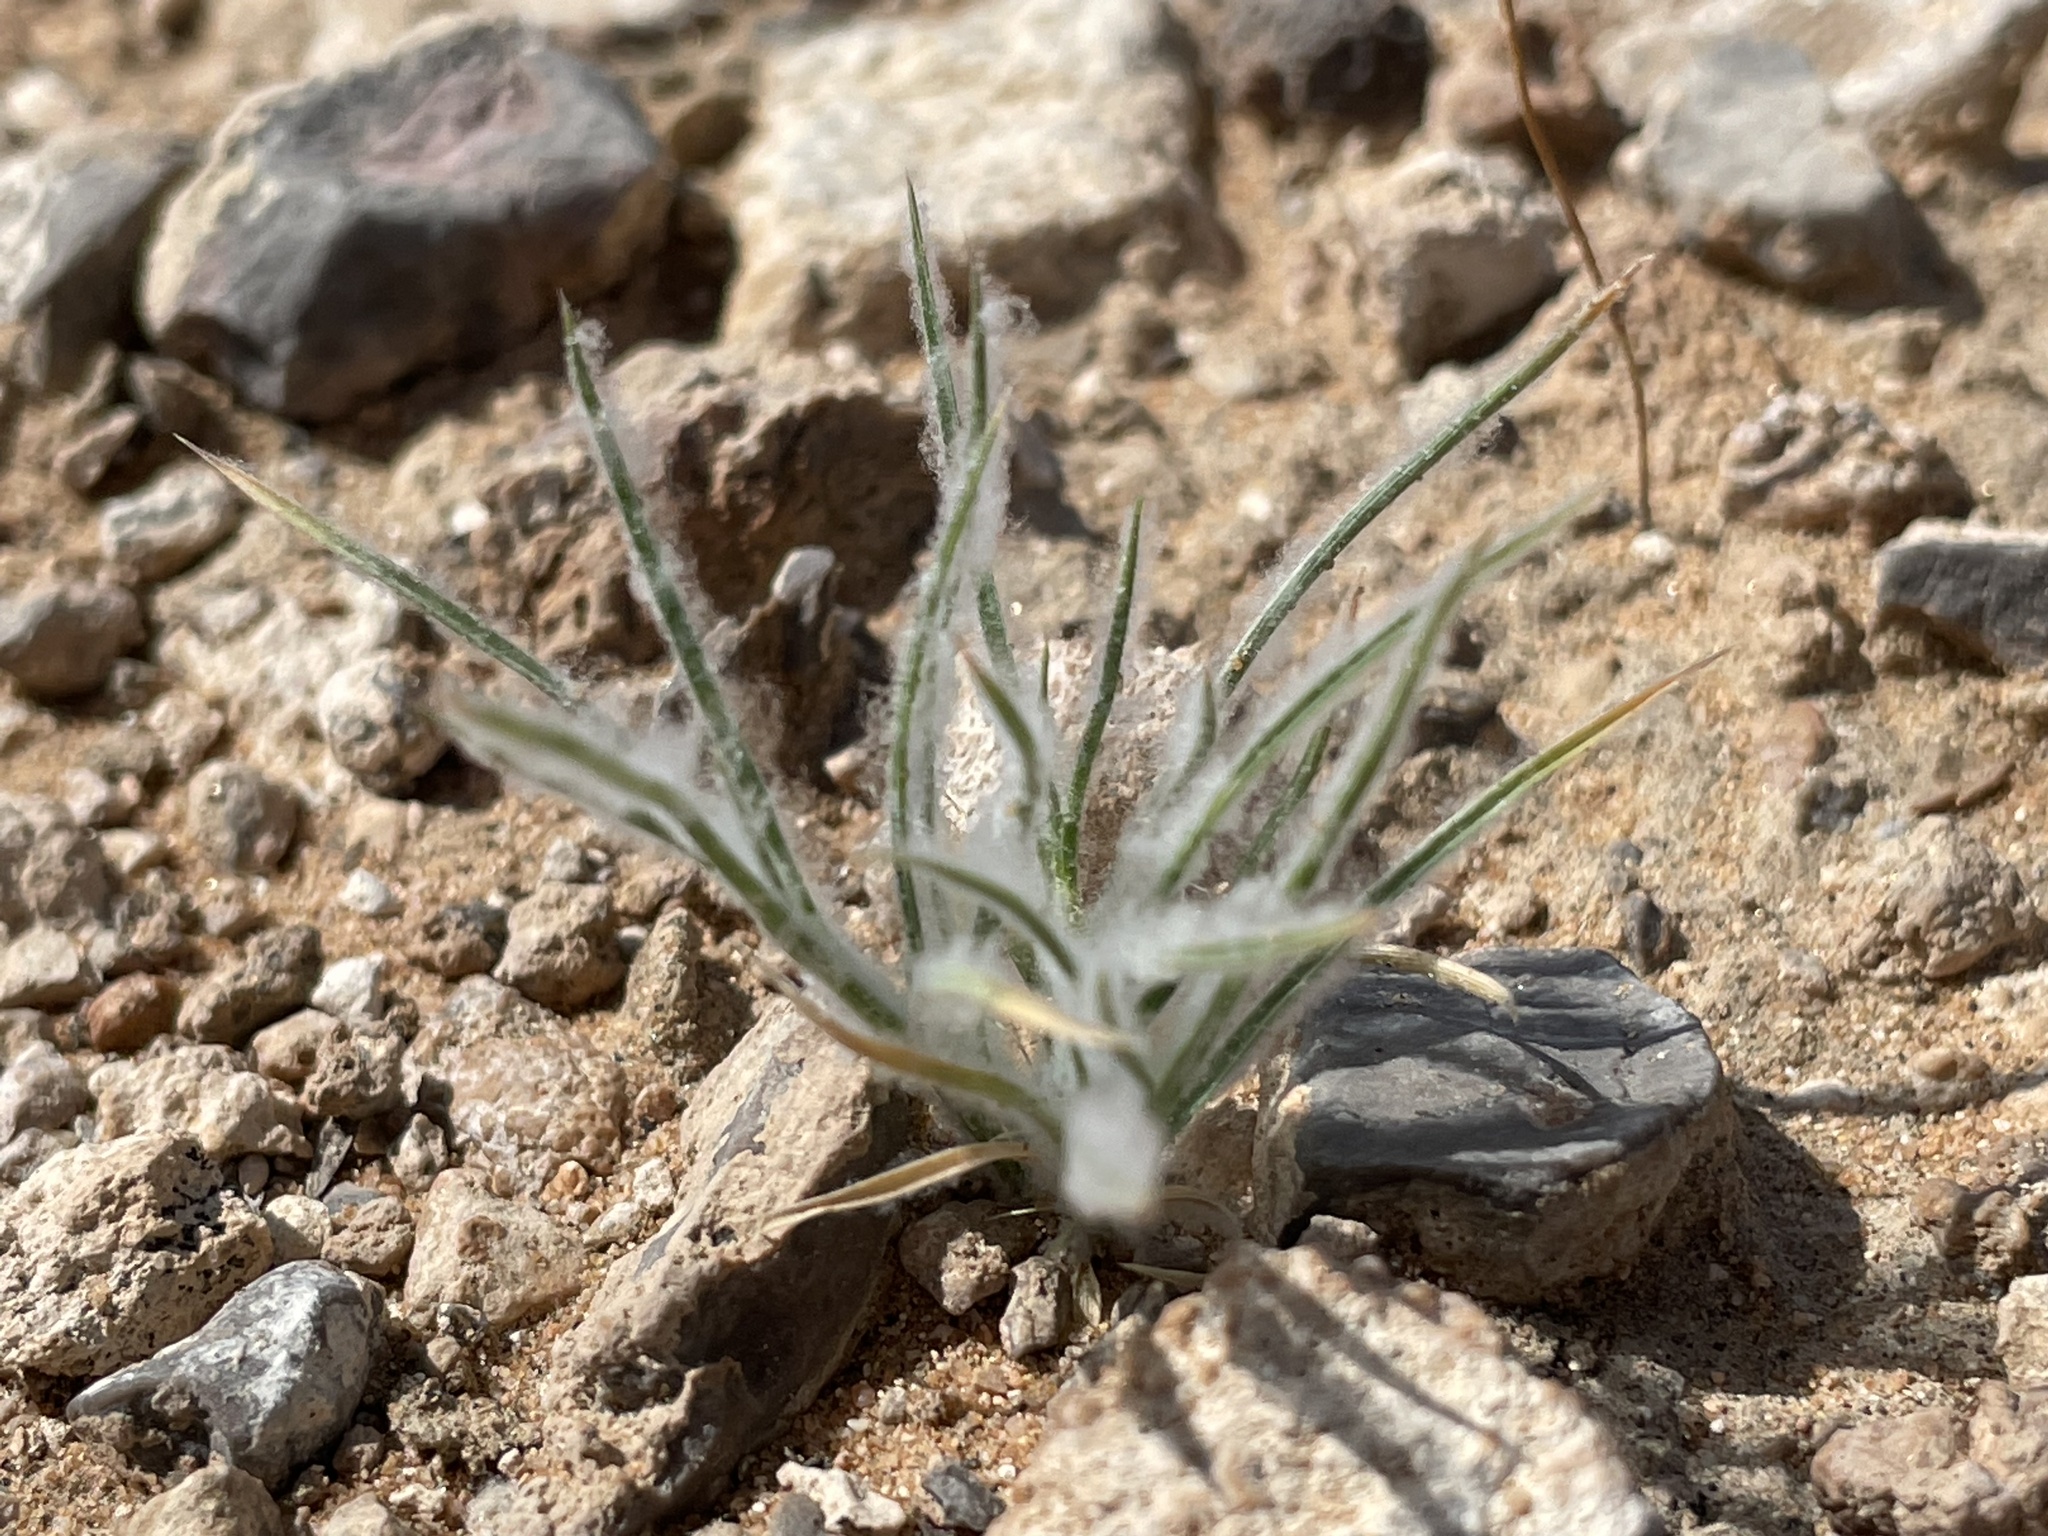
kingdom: Plantae
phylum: Tracheophyta
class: Liliopsida
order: Poales
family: Poaceae
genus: Dasyochloa
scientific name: Dasyochloa pulchella
